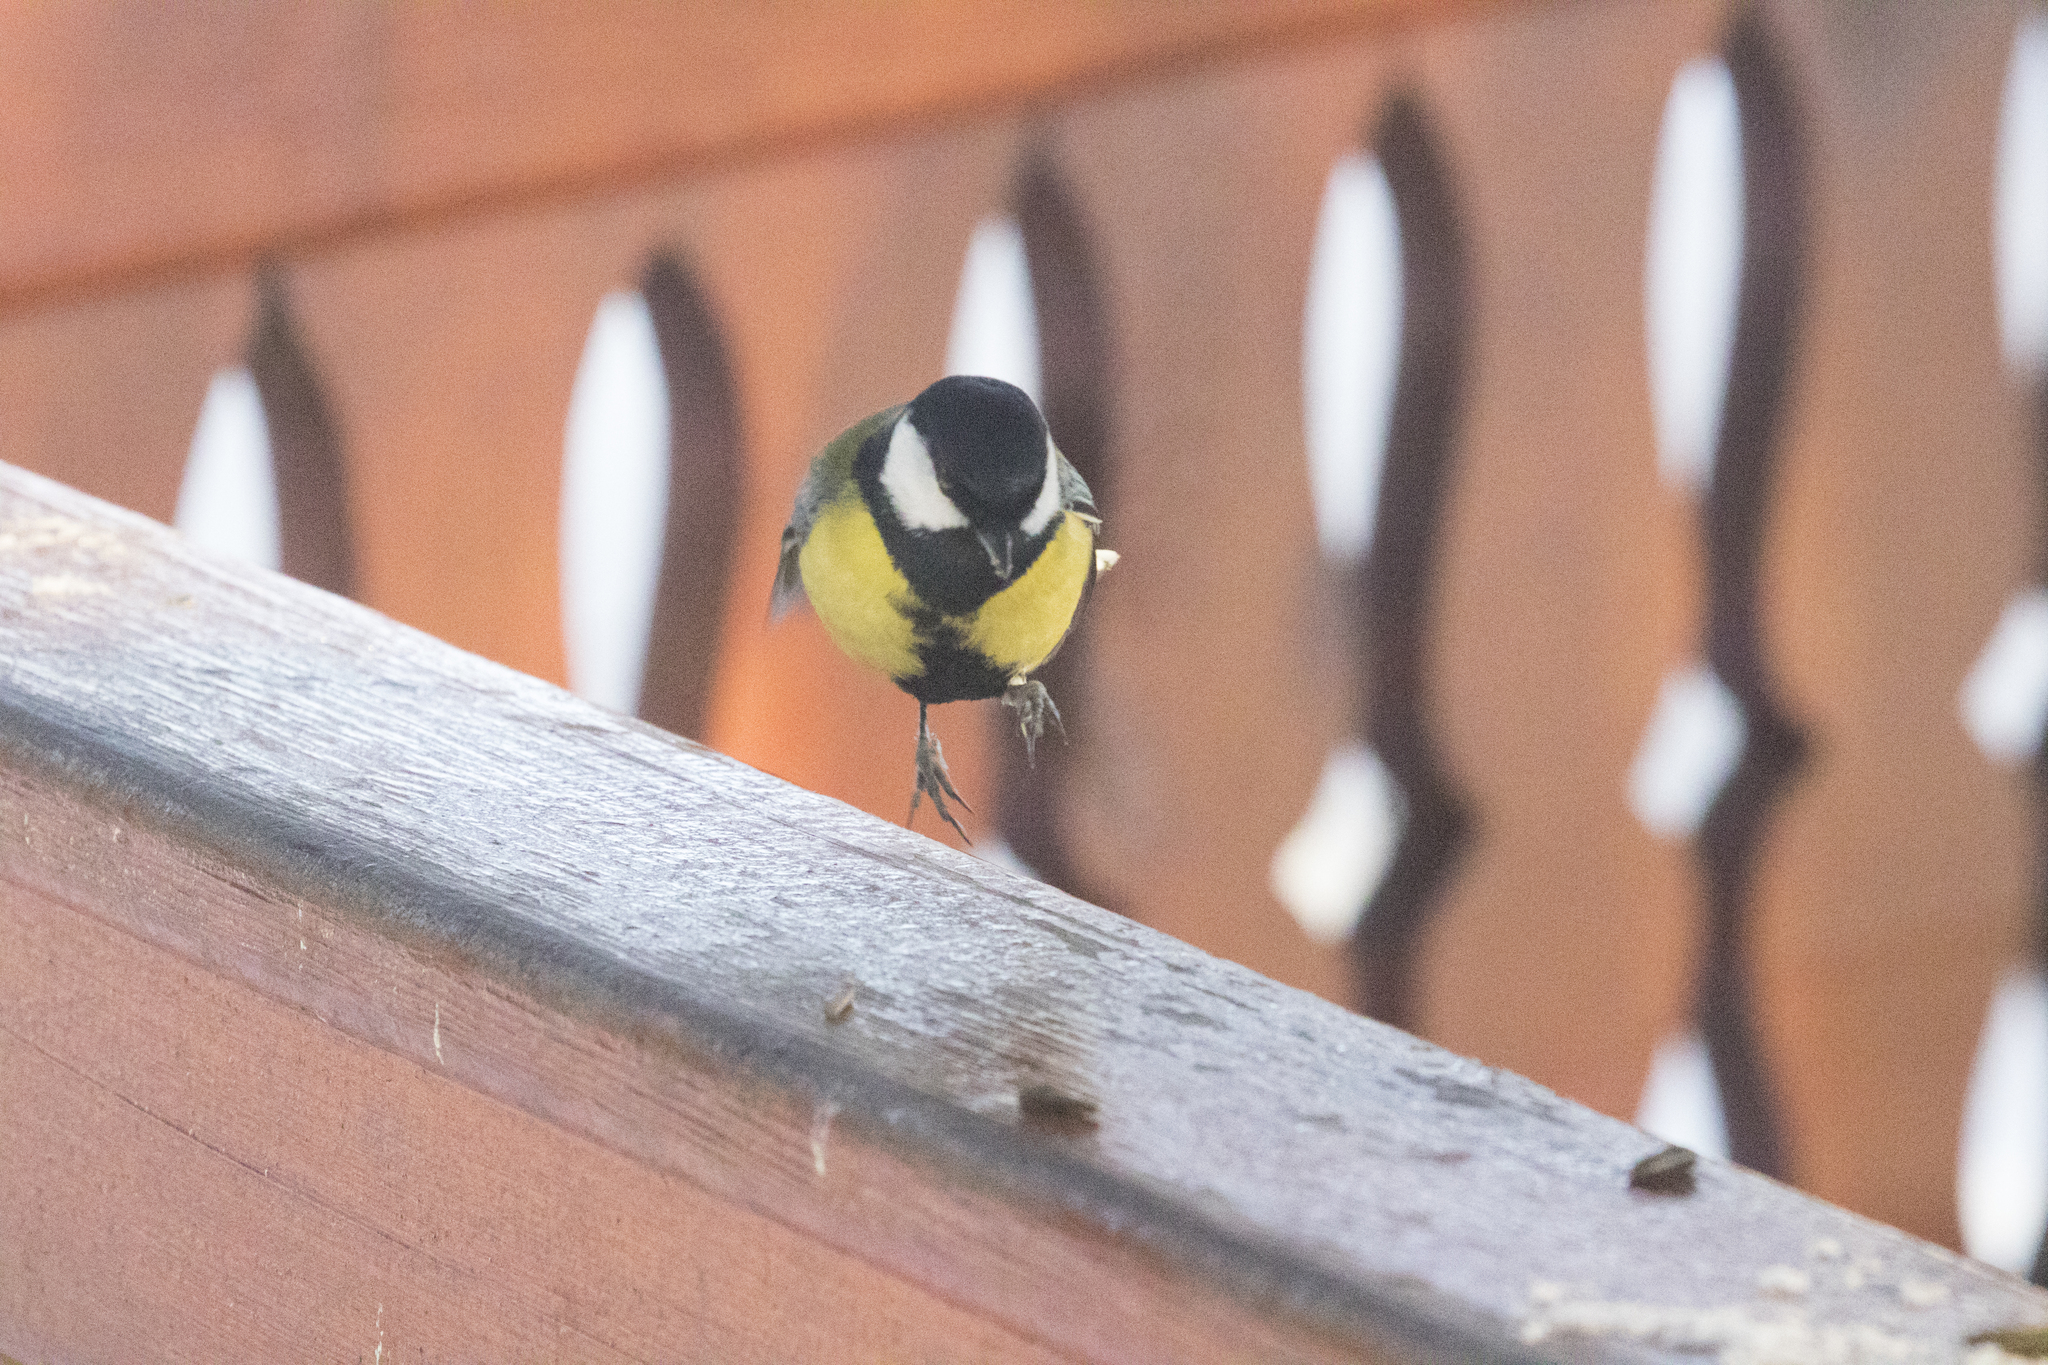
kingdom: Animalia
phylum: Chordata
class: Aves
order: Passeriformes
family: Paridae
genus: Parus
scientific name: Parus major
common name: Great tit
